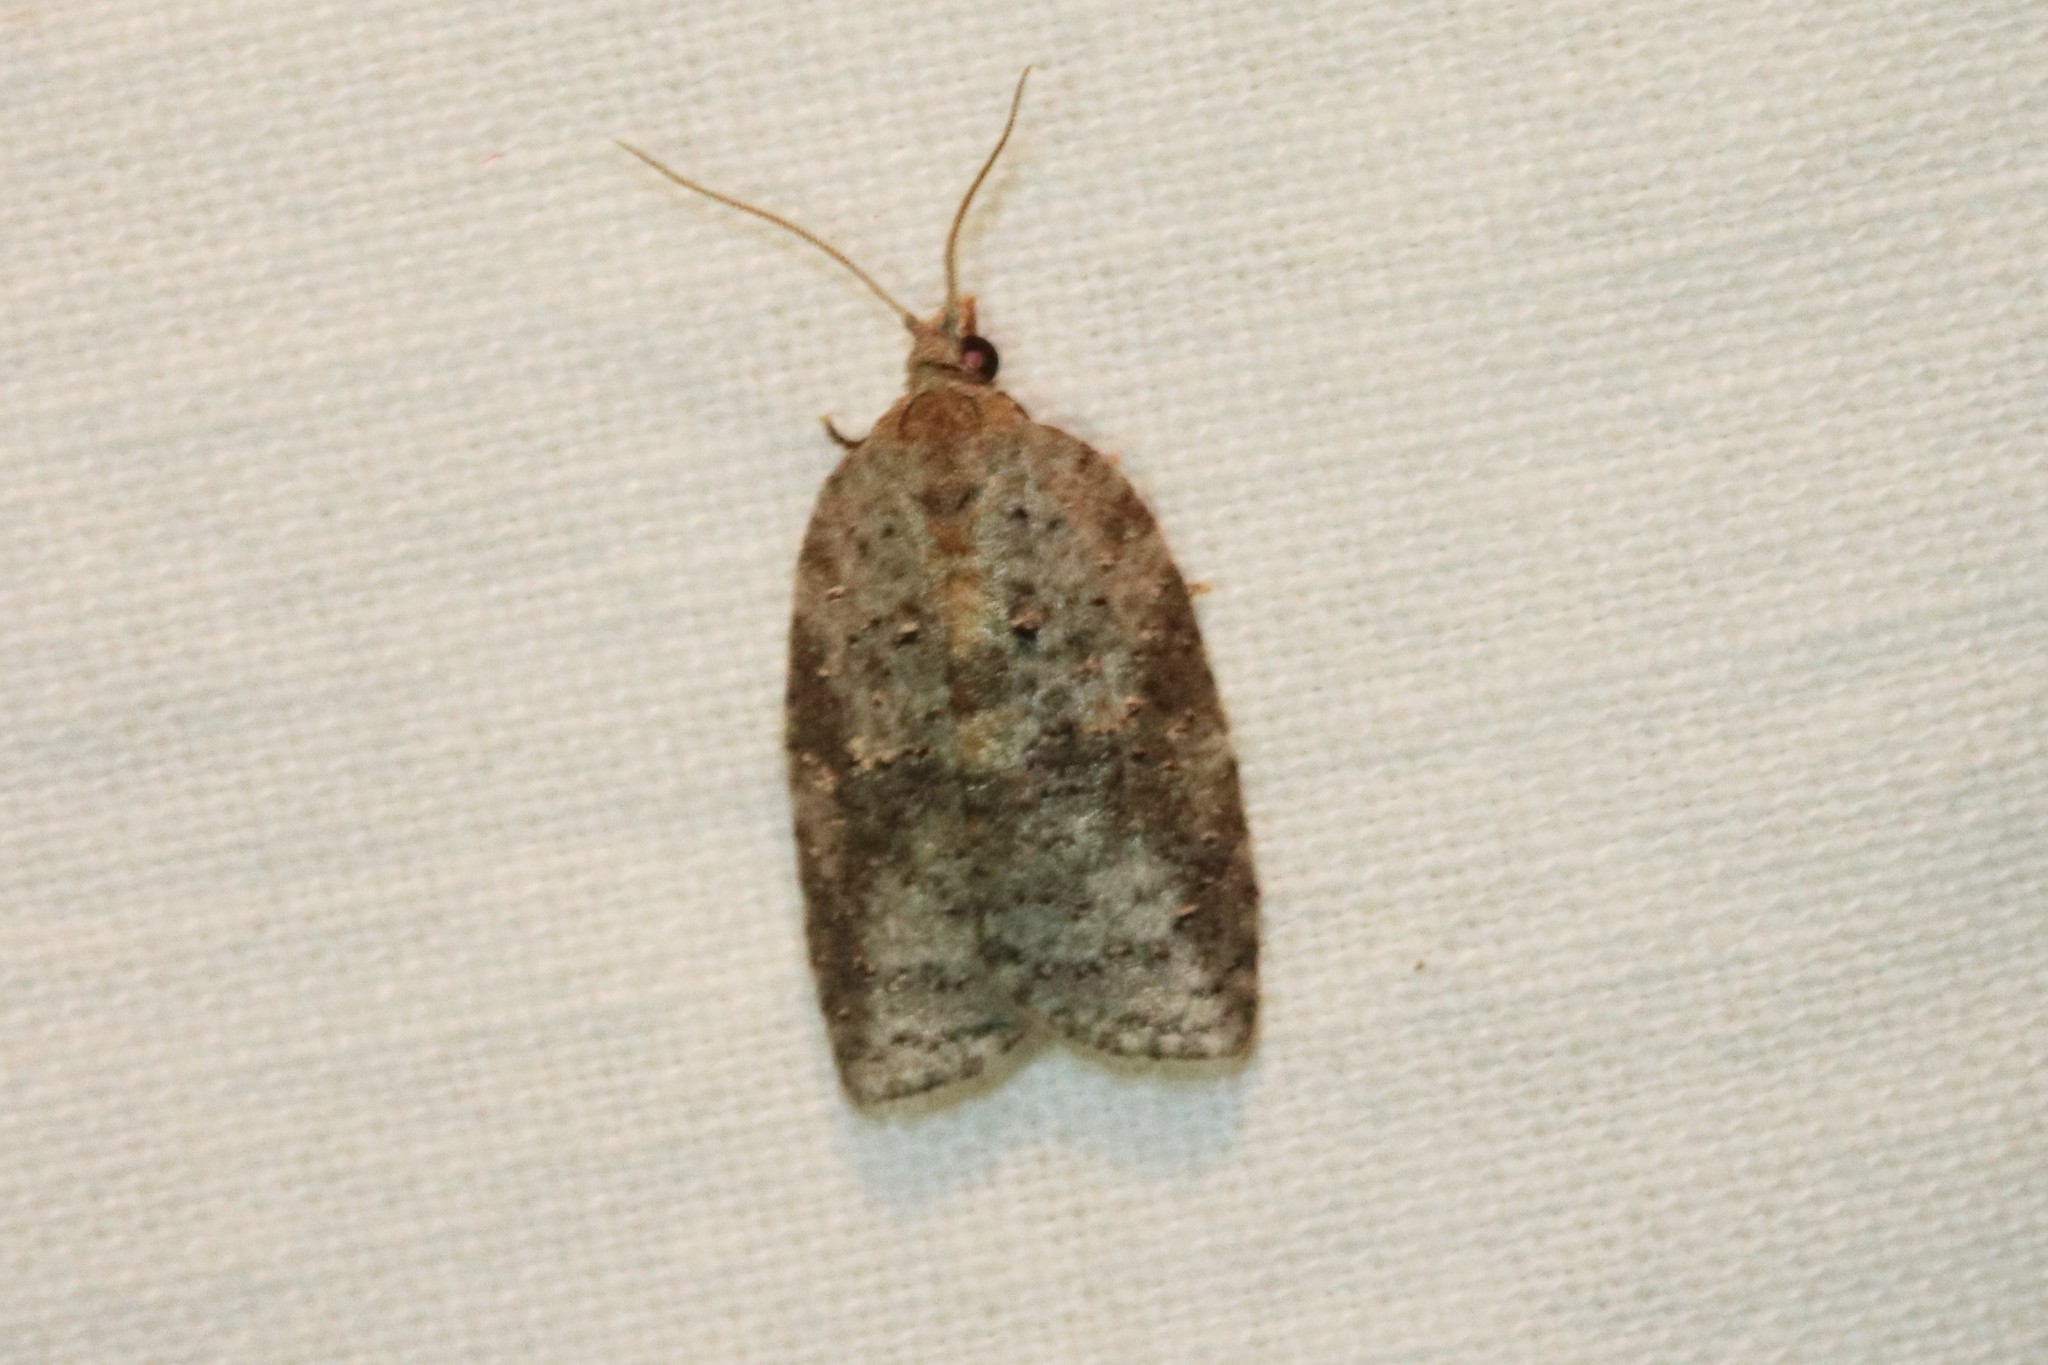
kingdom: Animalia
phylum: Arthropoda
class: Insecta
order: Lepidoptera
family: Tortricidae
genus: Amorbia
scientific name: Amorbia humerosana
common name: White-lined leafroller moth
